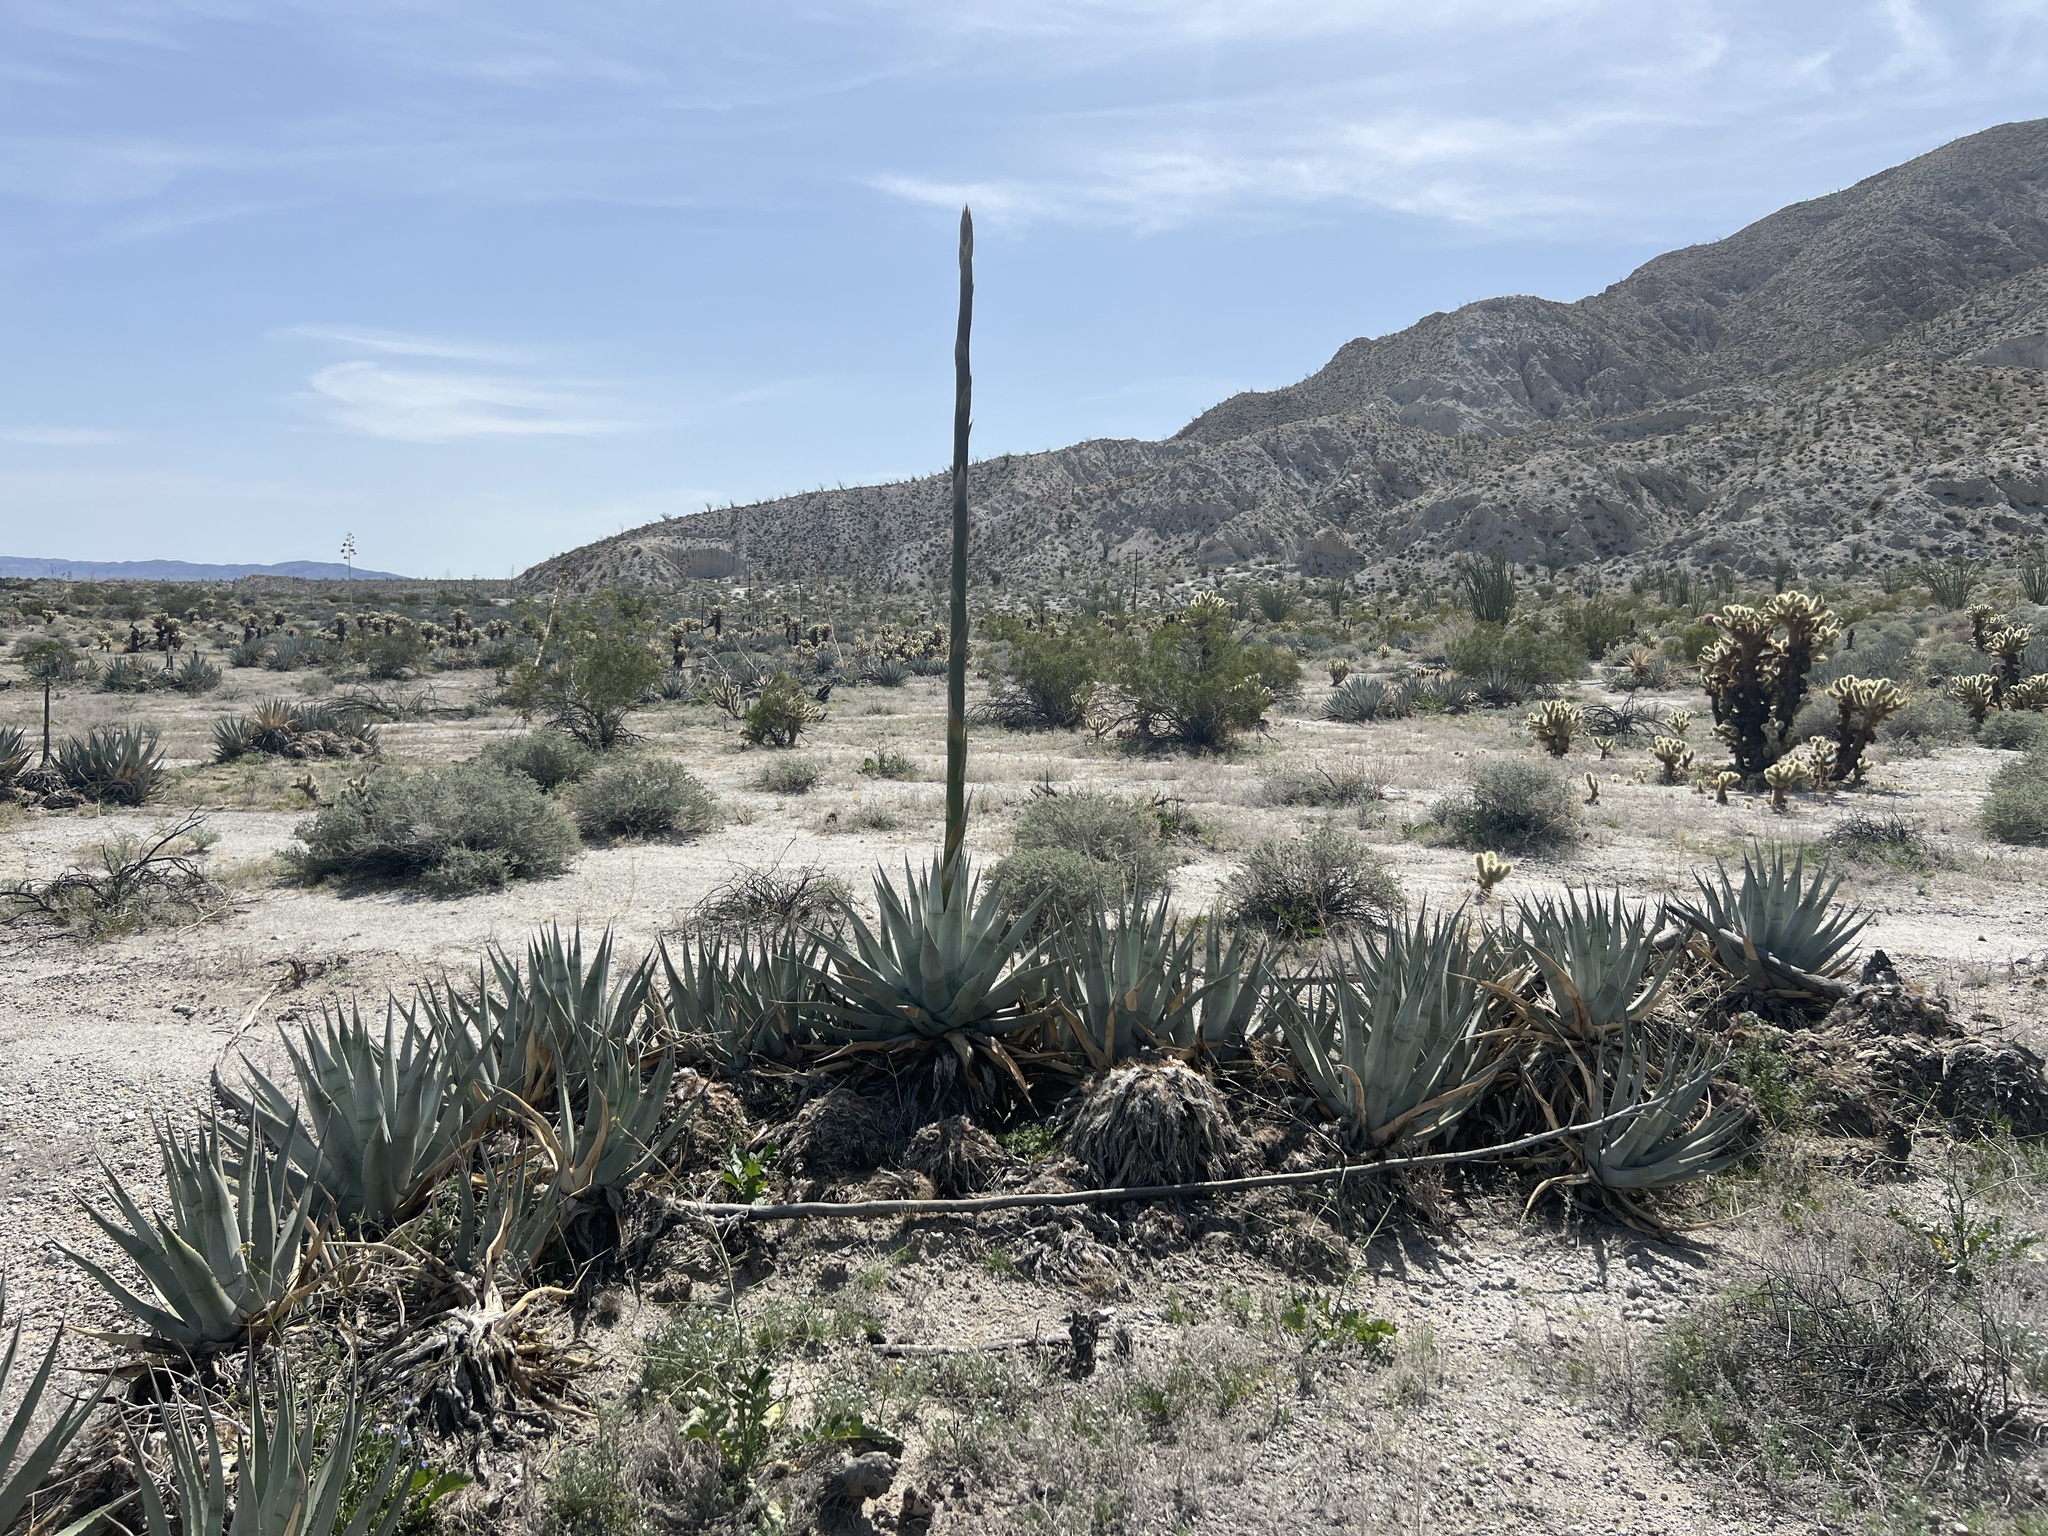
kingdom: Plantae
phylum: Tracheophyta
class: Liliopsida
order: Asparagales
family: Asparagaceae
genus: Agave
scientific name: Agave deserti
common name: Desert agave
